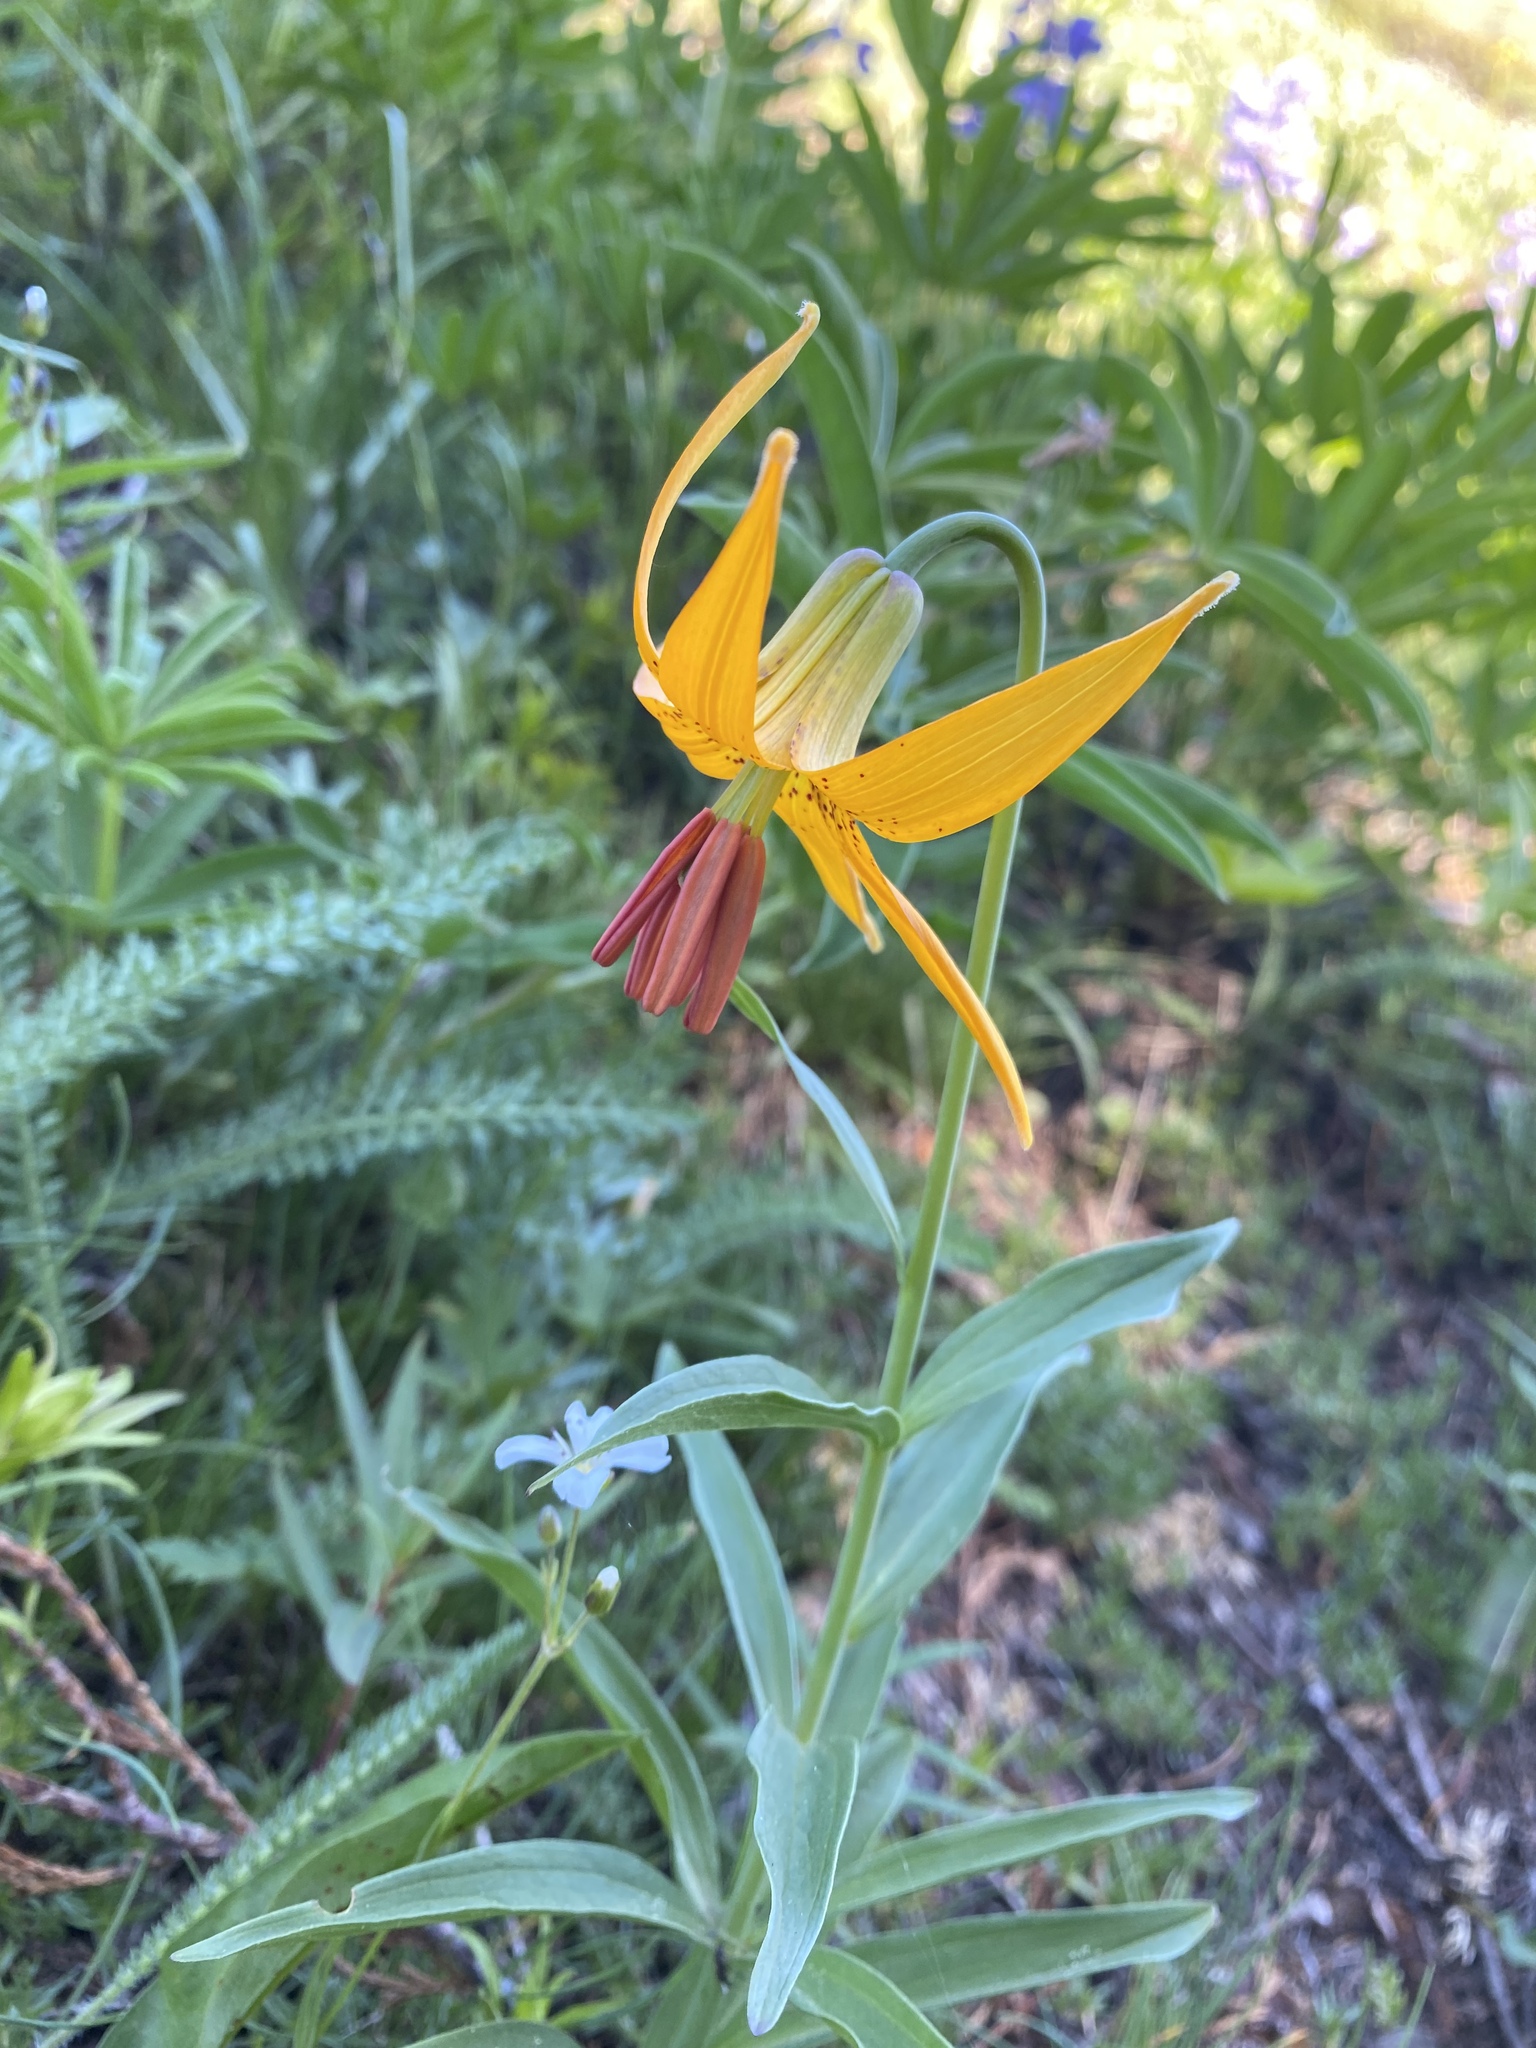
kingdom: Plantae
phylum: Tracheophyta
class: Liliopsida
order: Liliales
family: Liliaceae
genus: Lilium
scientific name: Lilium columbianum
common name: Columbia lily
